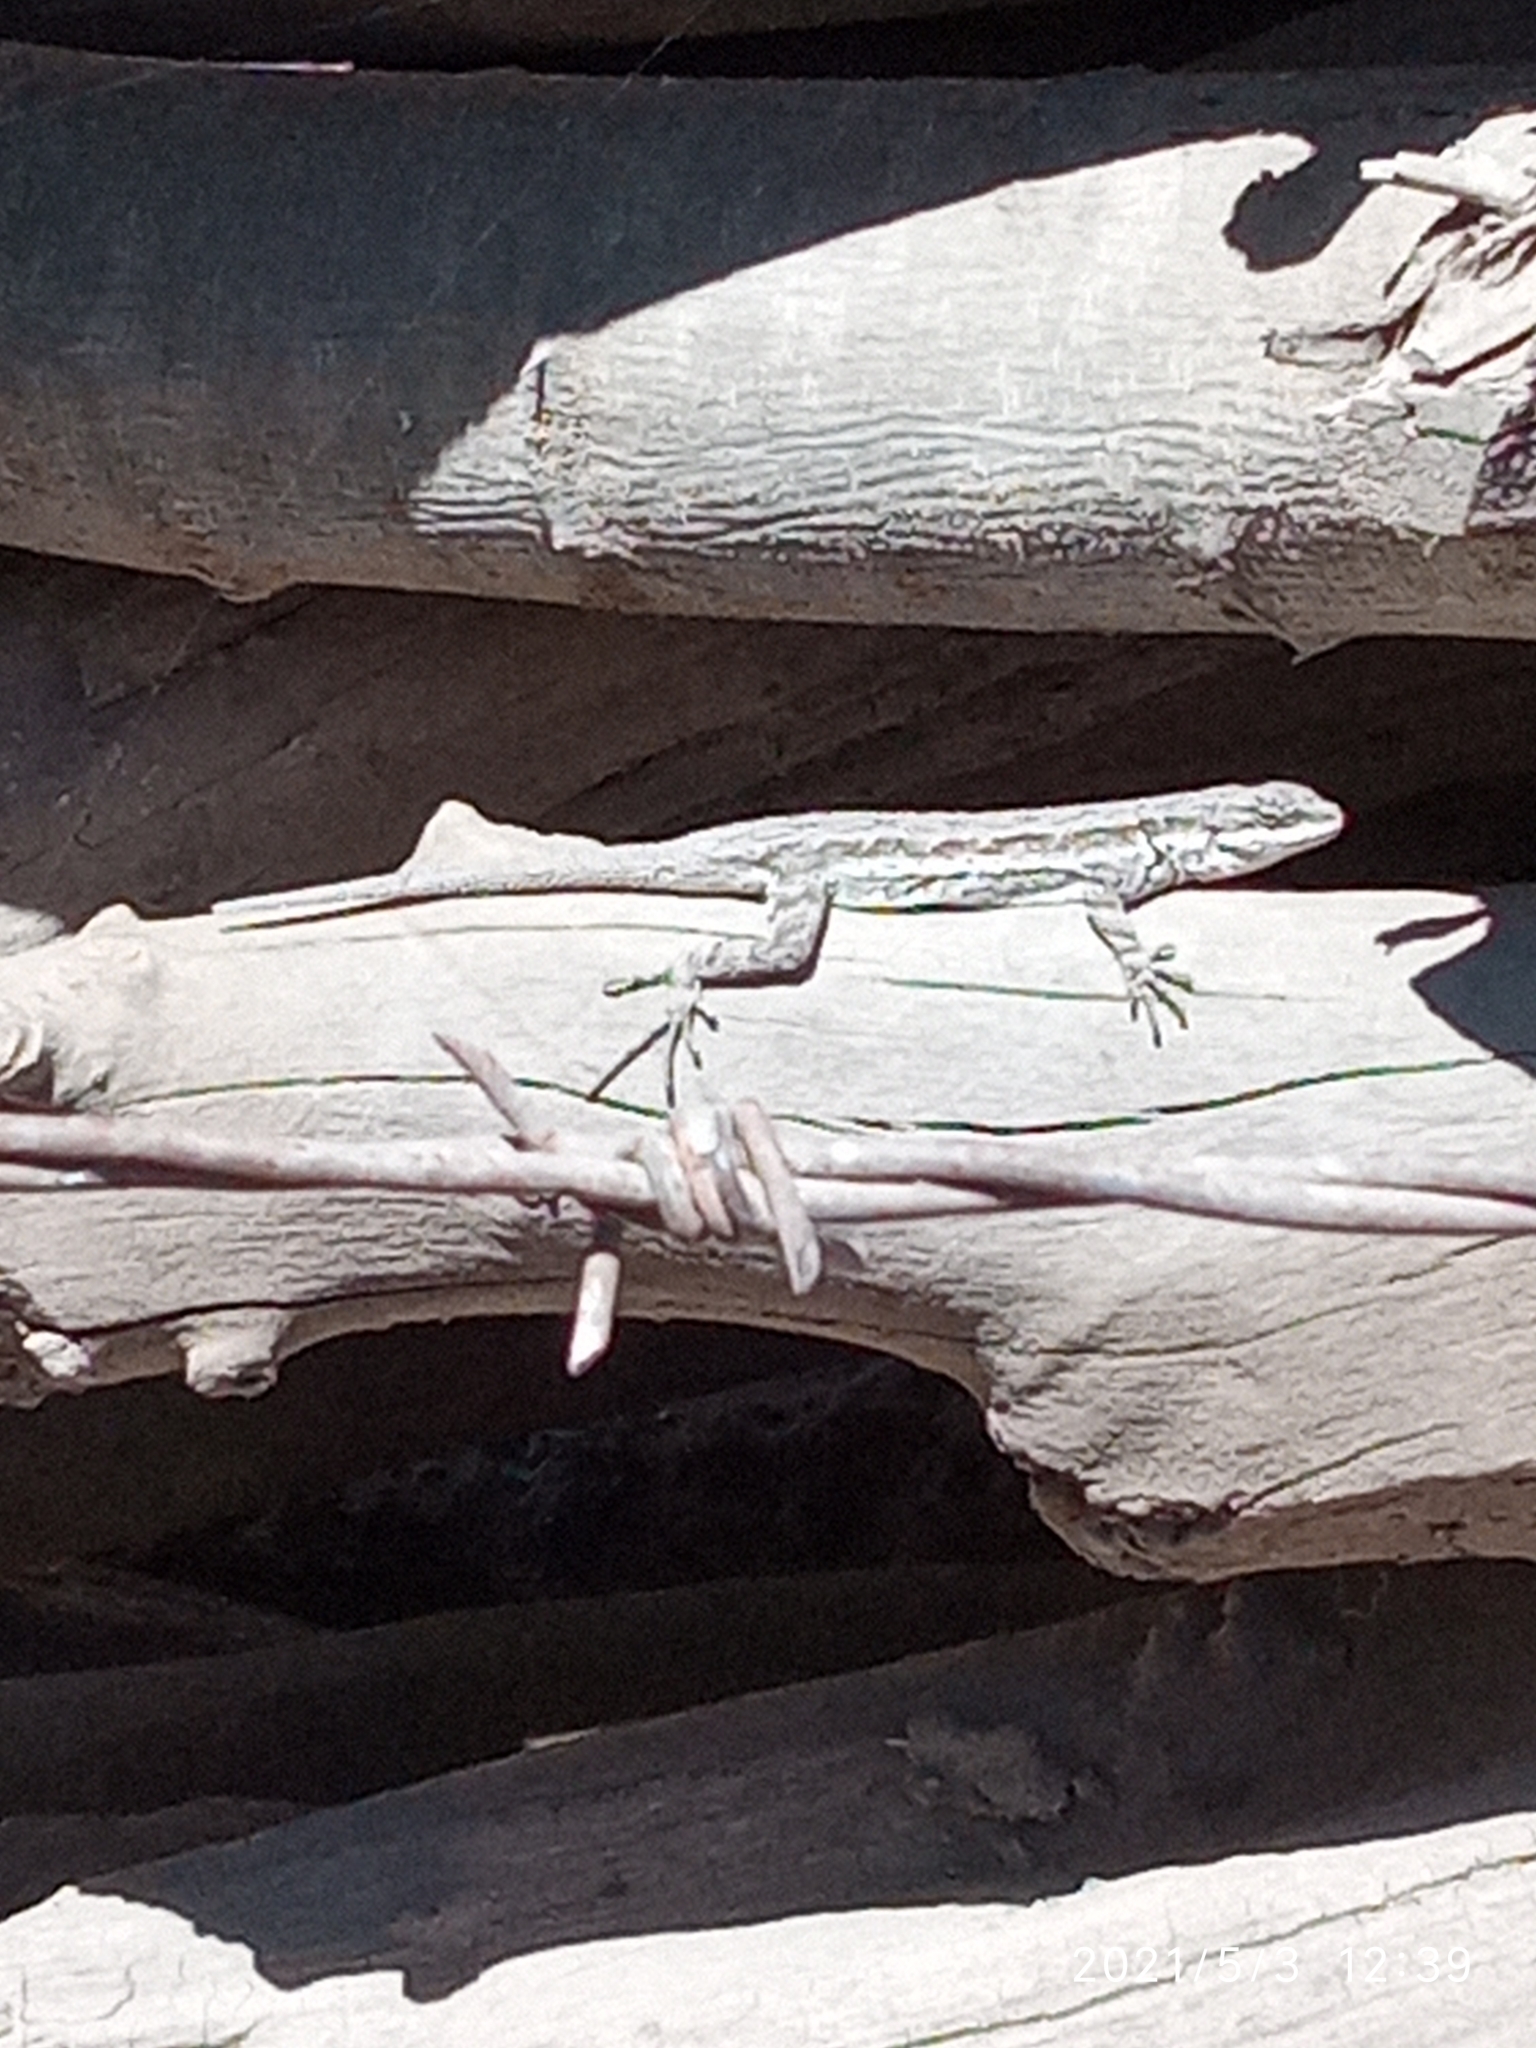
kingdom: Animalia
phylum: Chordata
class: Squamata
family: Phrynosomatidae
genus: Urosaurus
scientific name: Urosaurus ornatus
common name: Ornate tree lizard
